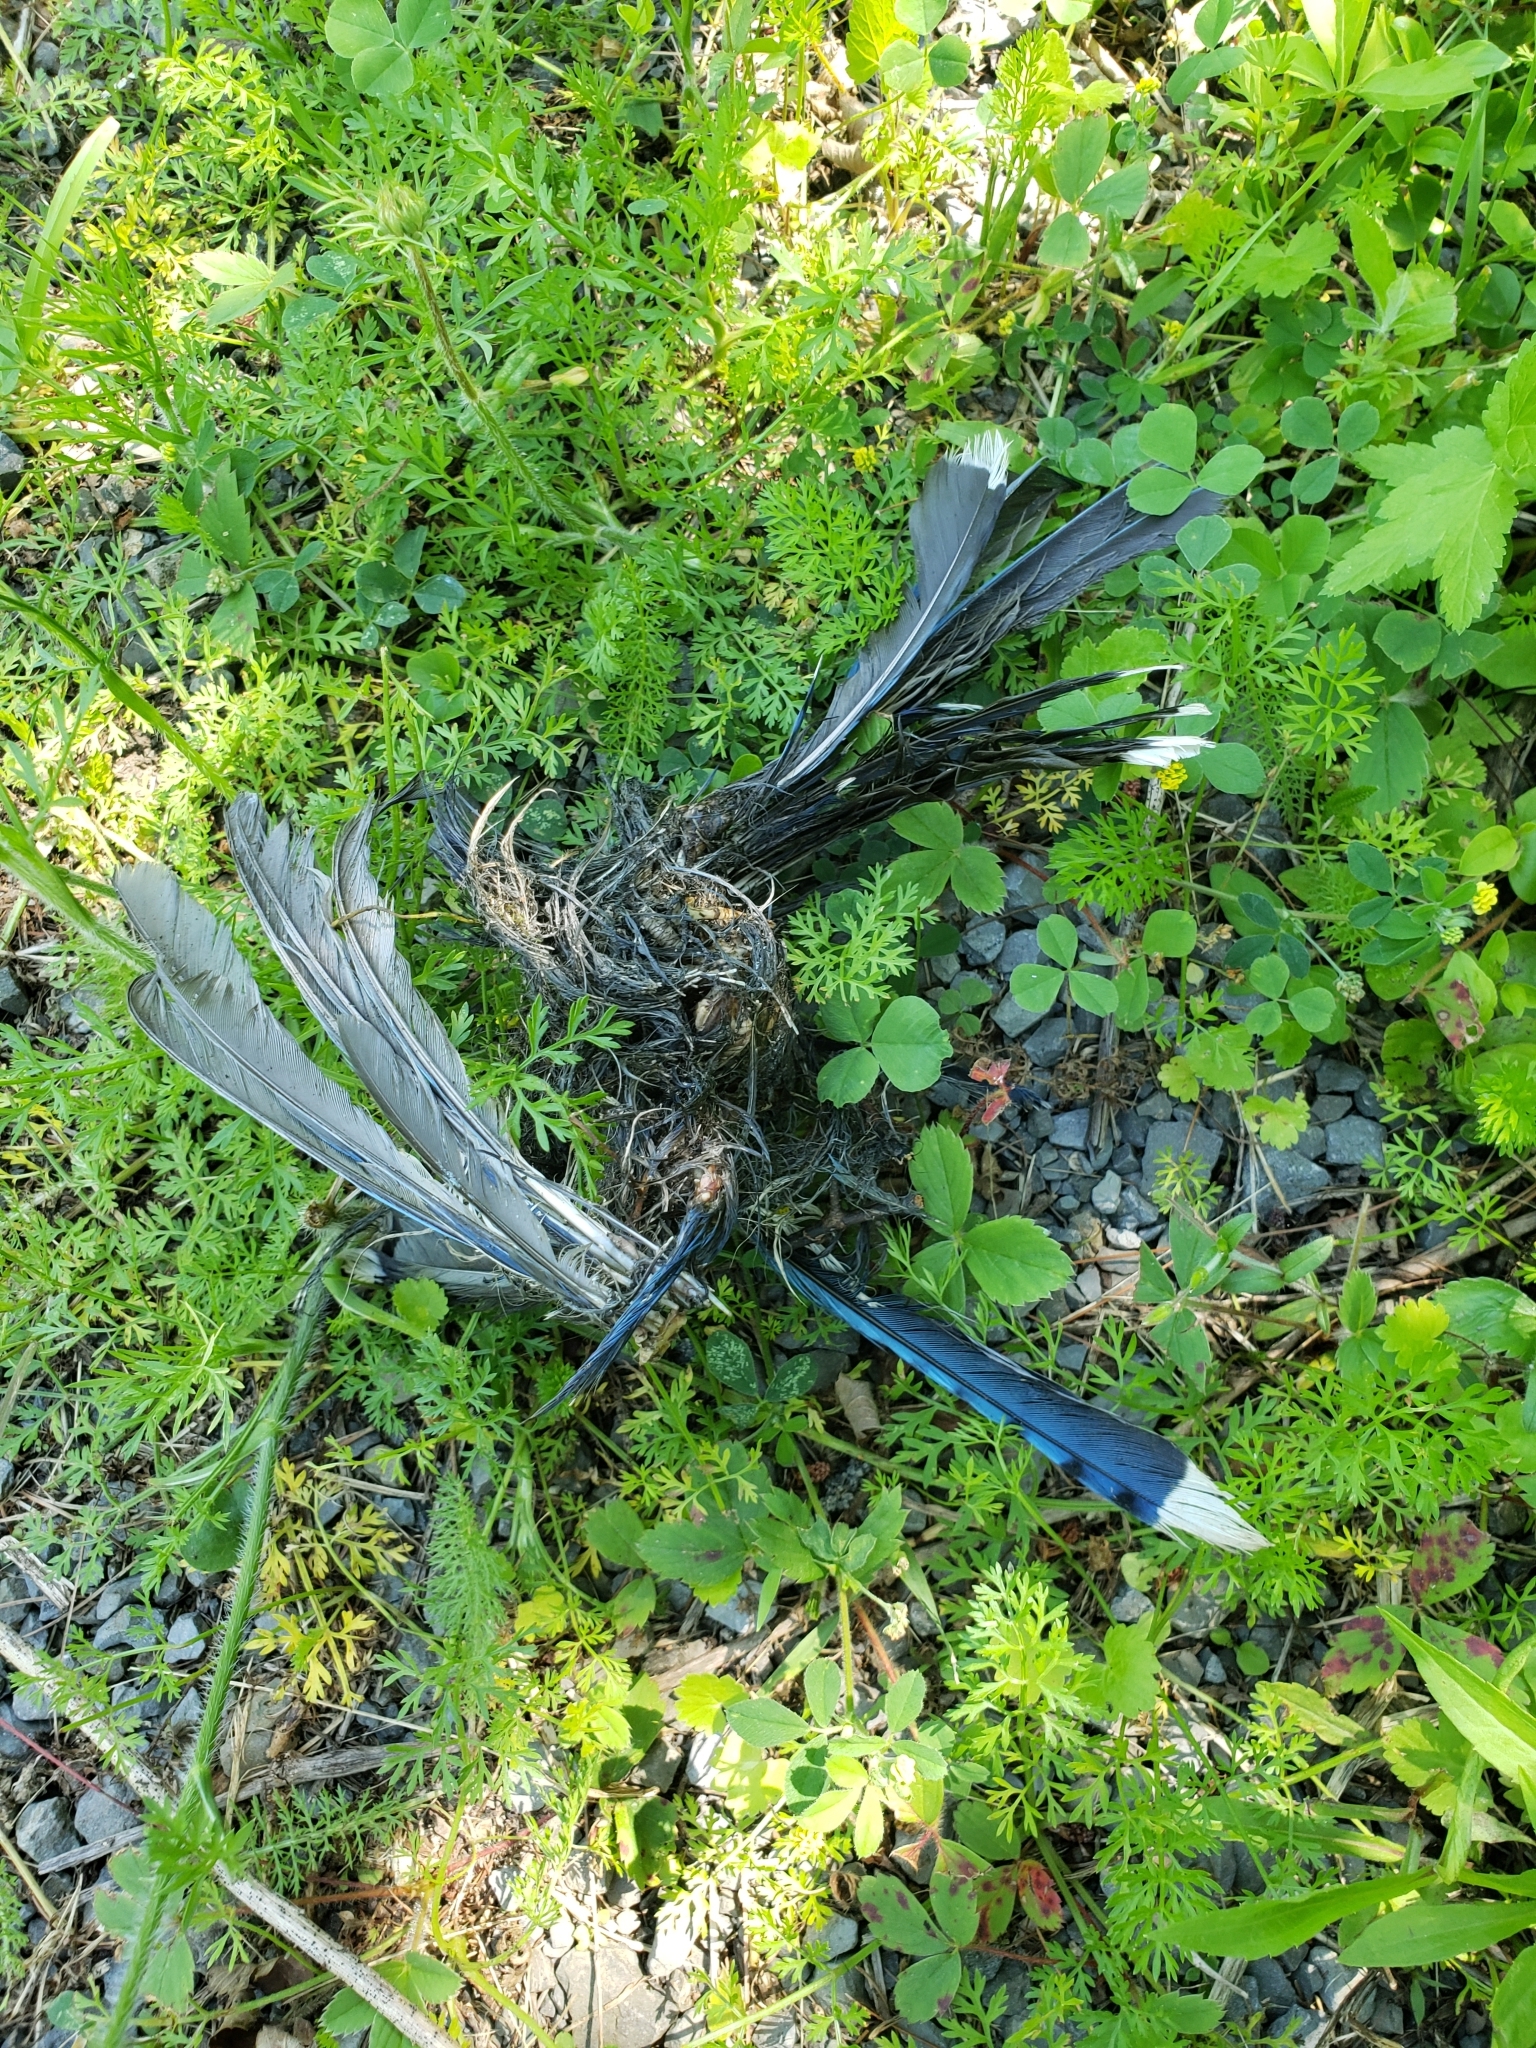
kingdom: Animalia
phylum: Chordata
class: Aves
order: Passeriformes
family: Corvidae
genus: Cyanocitta
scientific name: Cyanocitta cristata
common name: Blue jay
